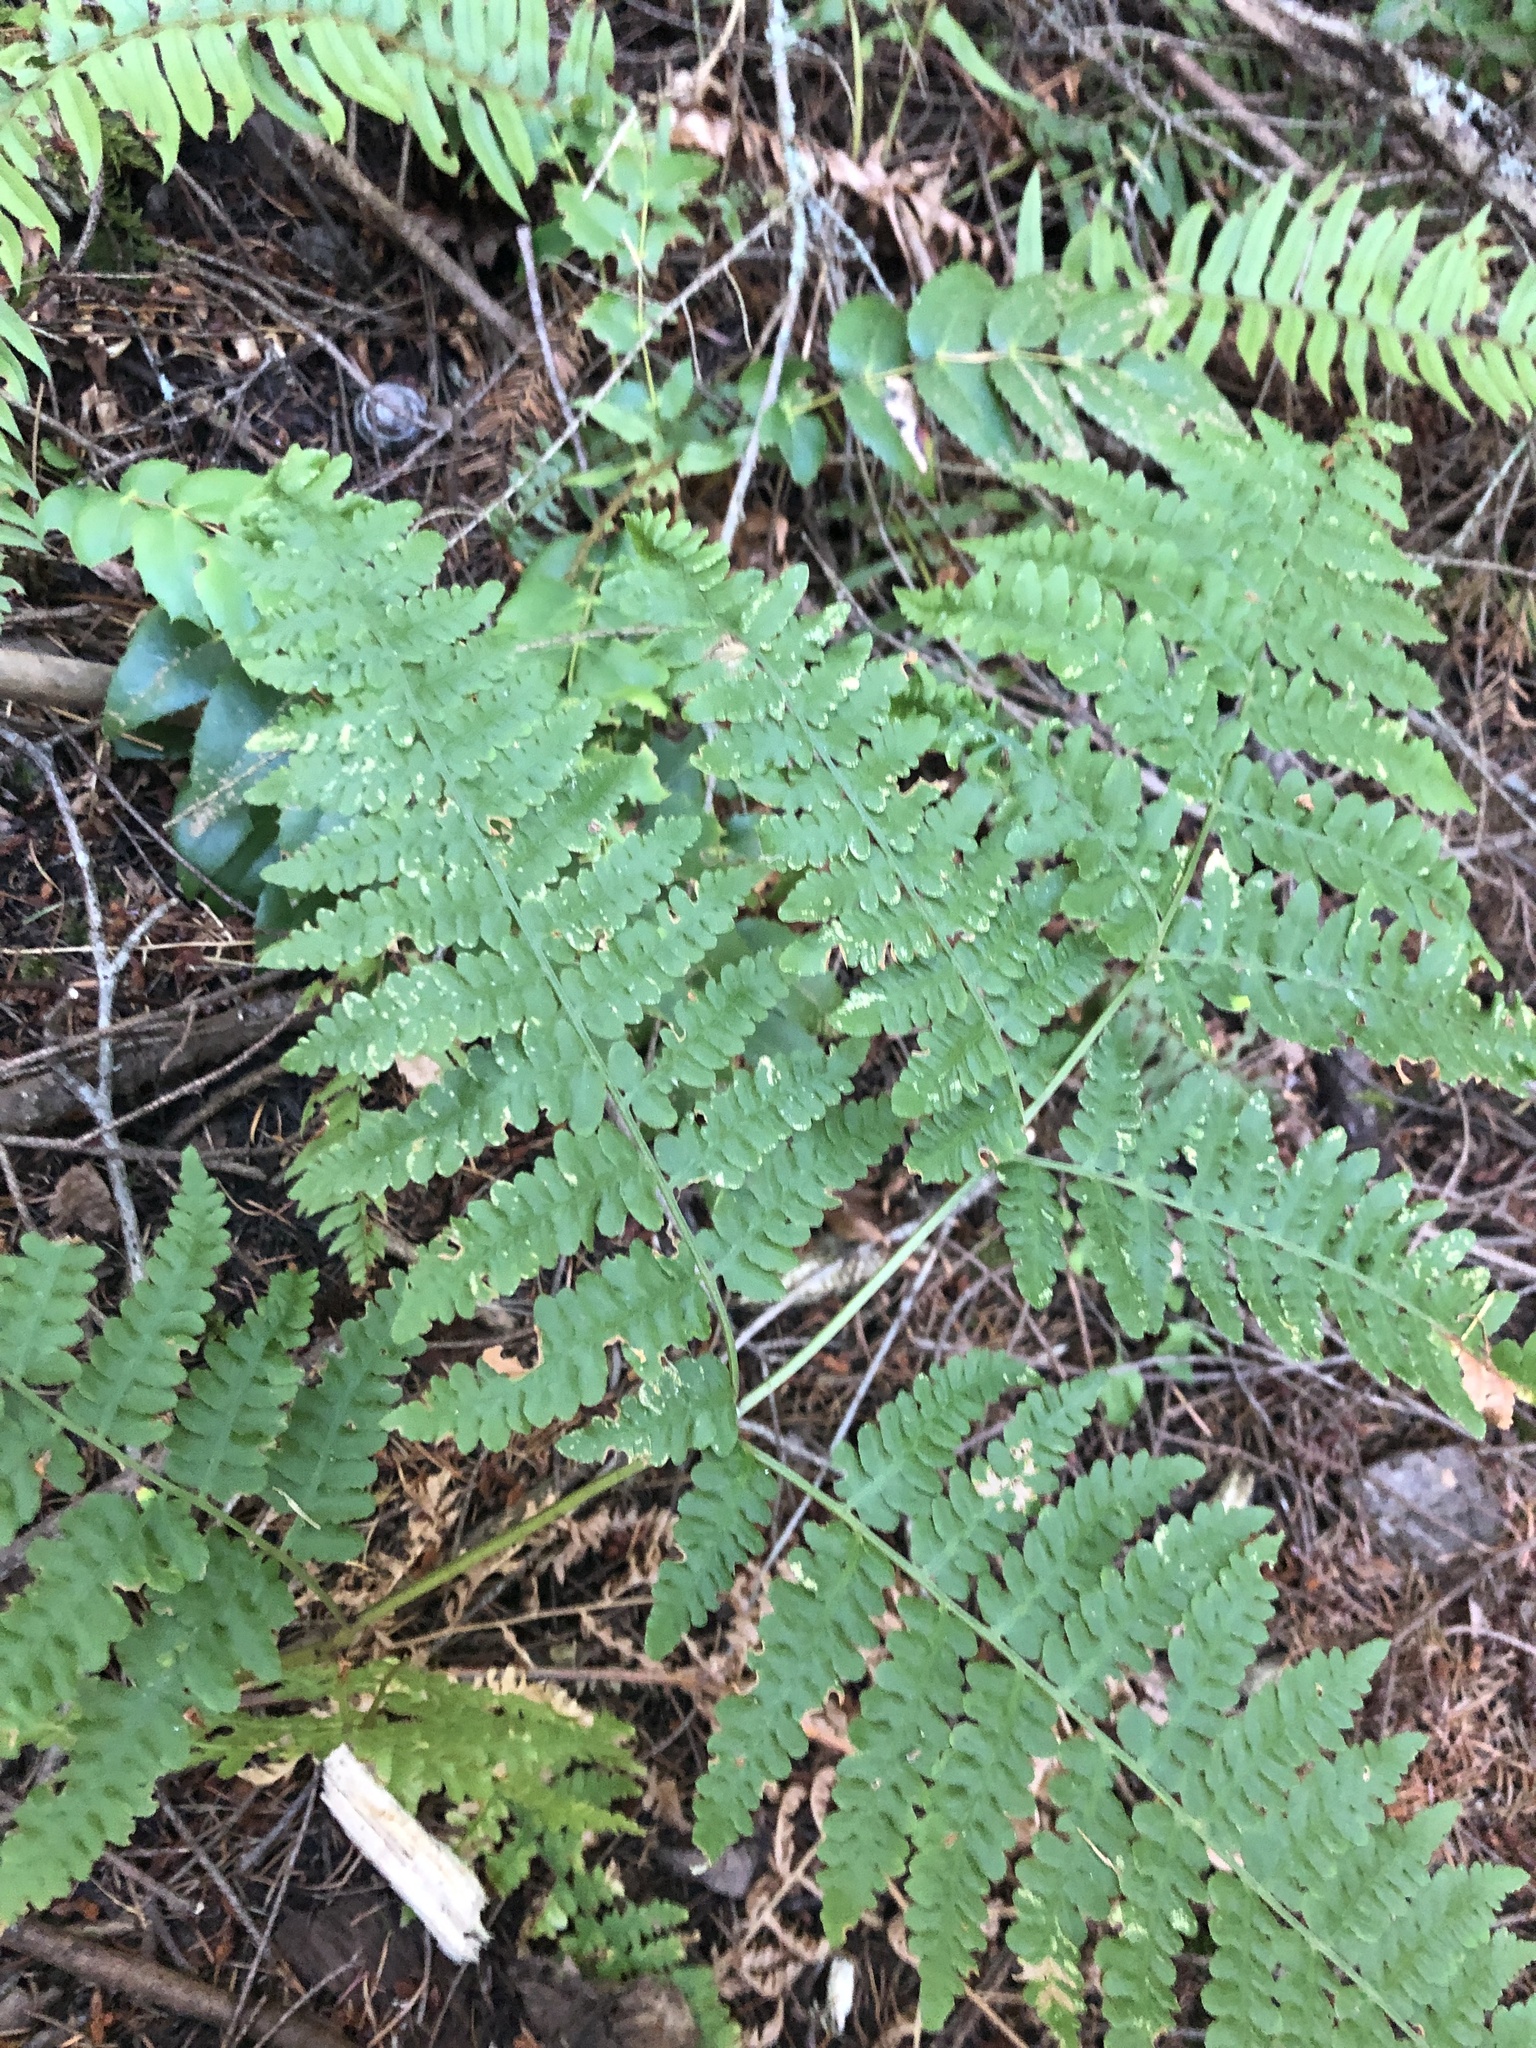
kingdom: Plantae
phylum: Tracheophyta
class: Polypodiopsida
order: Polypodiales
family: Dennstaedtiaceae
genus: Pteridium
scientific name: Pteridium aquilinum
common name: Bracken
